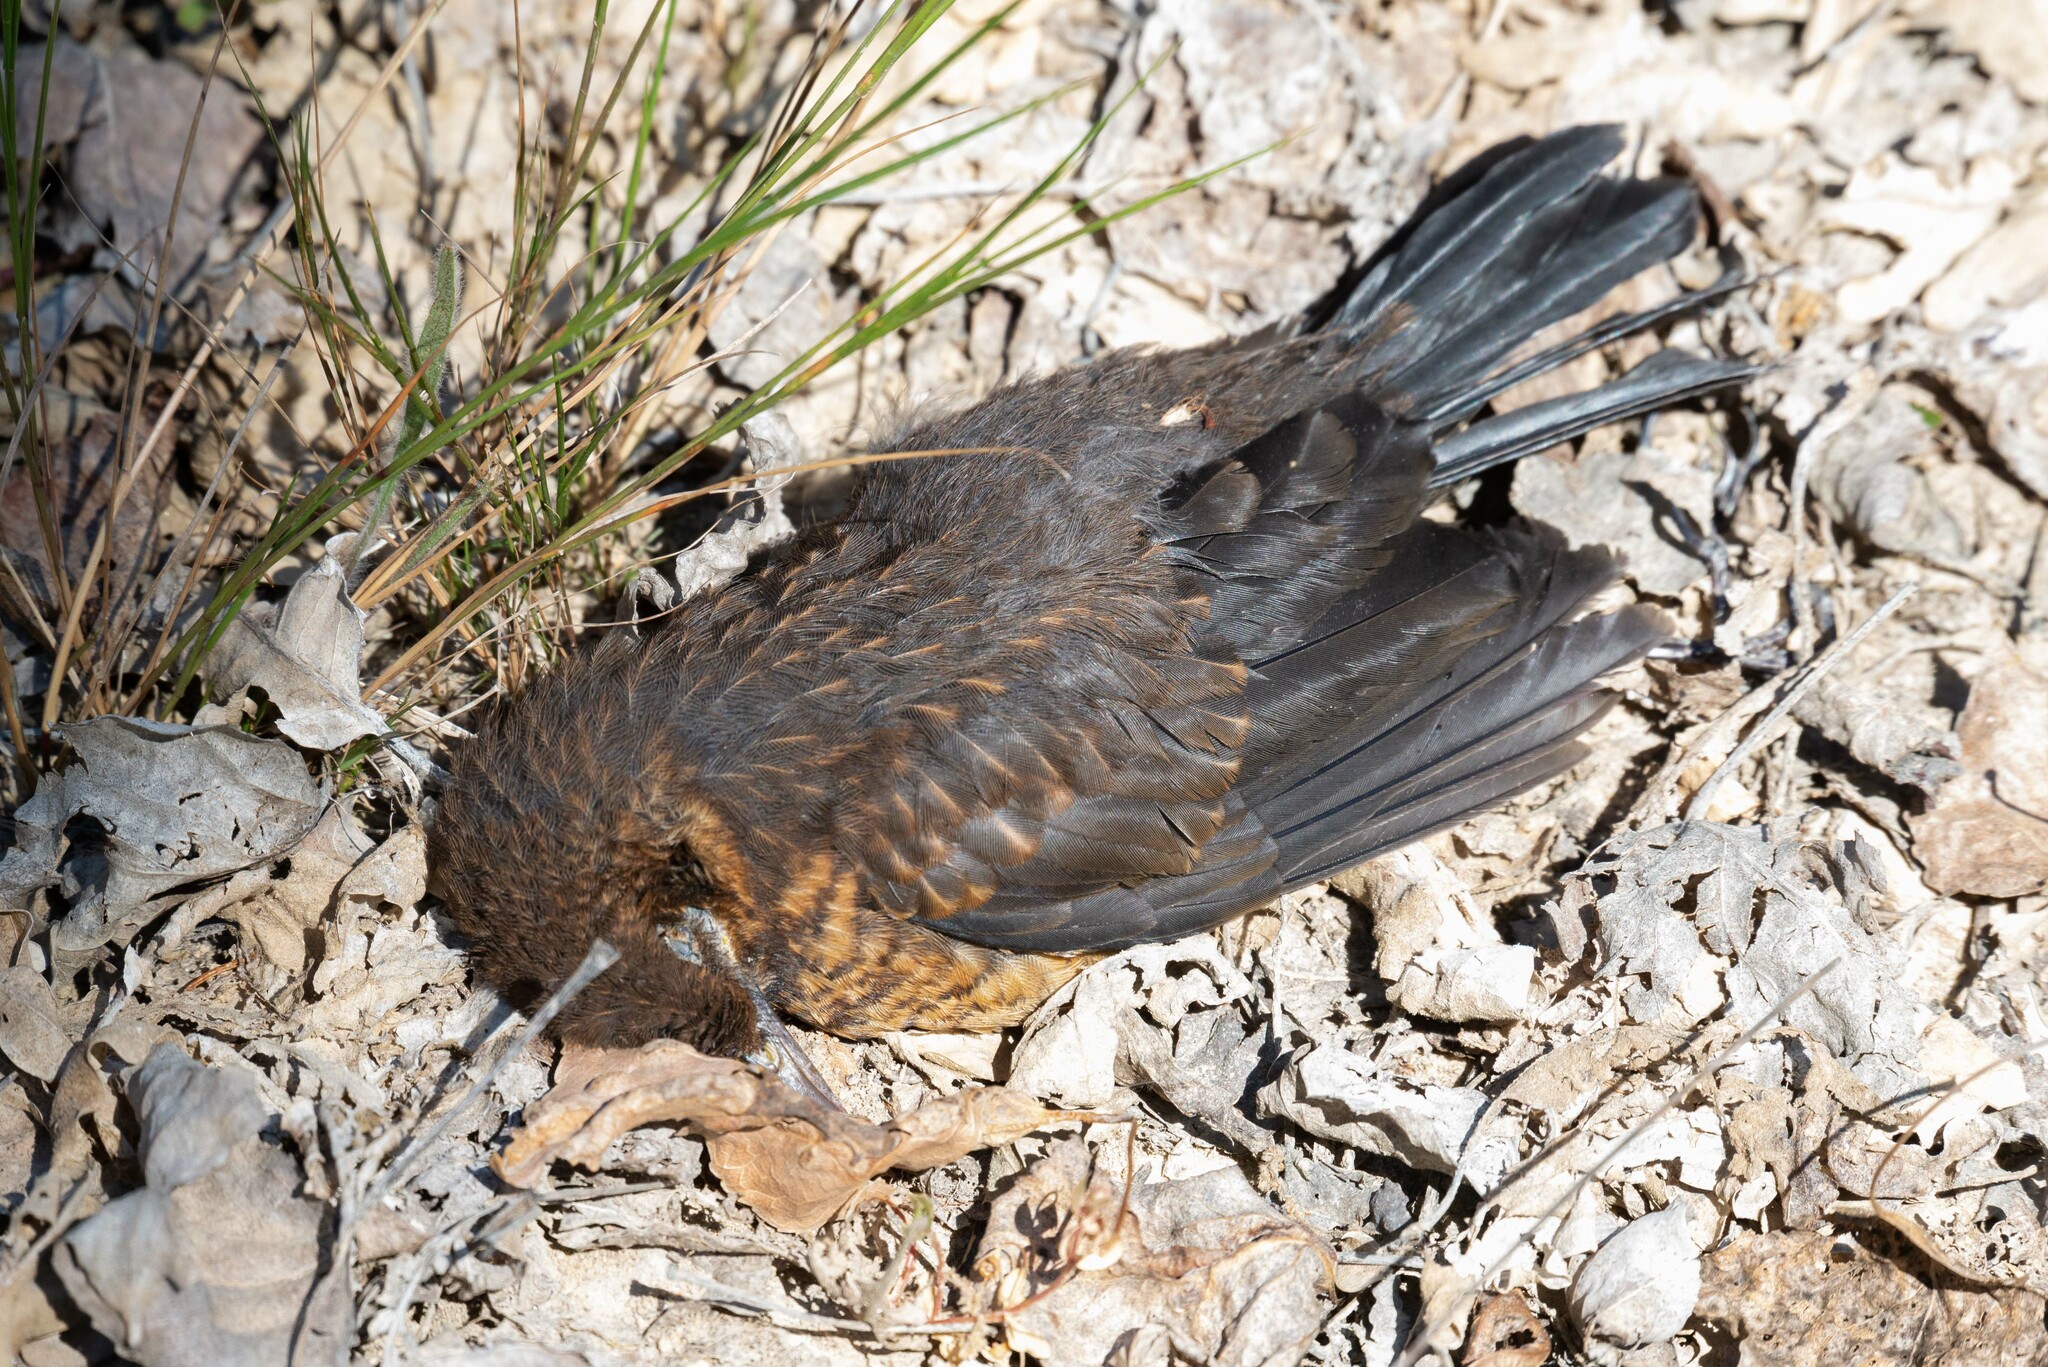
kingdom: Animalia
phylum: Chordata
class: Aves
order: Passeriformes
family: Turdidae
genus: Turdus
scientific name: Turdus merula
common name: Common blackbird
